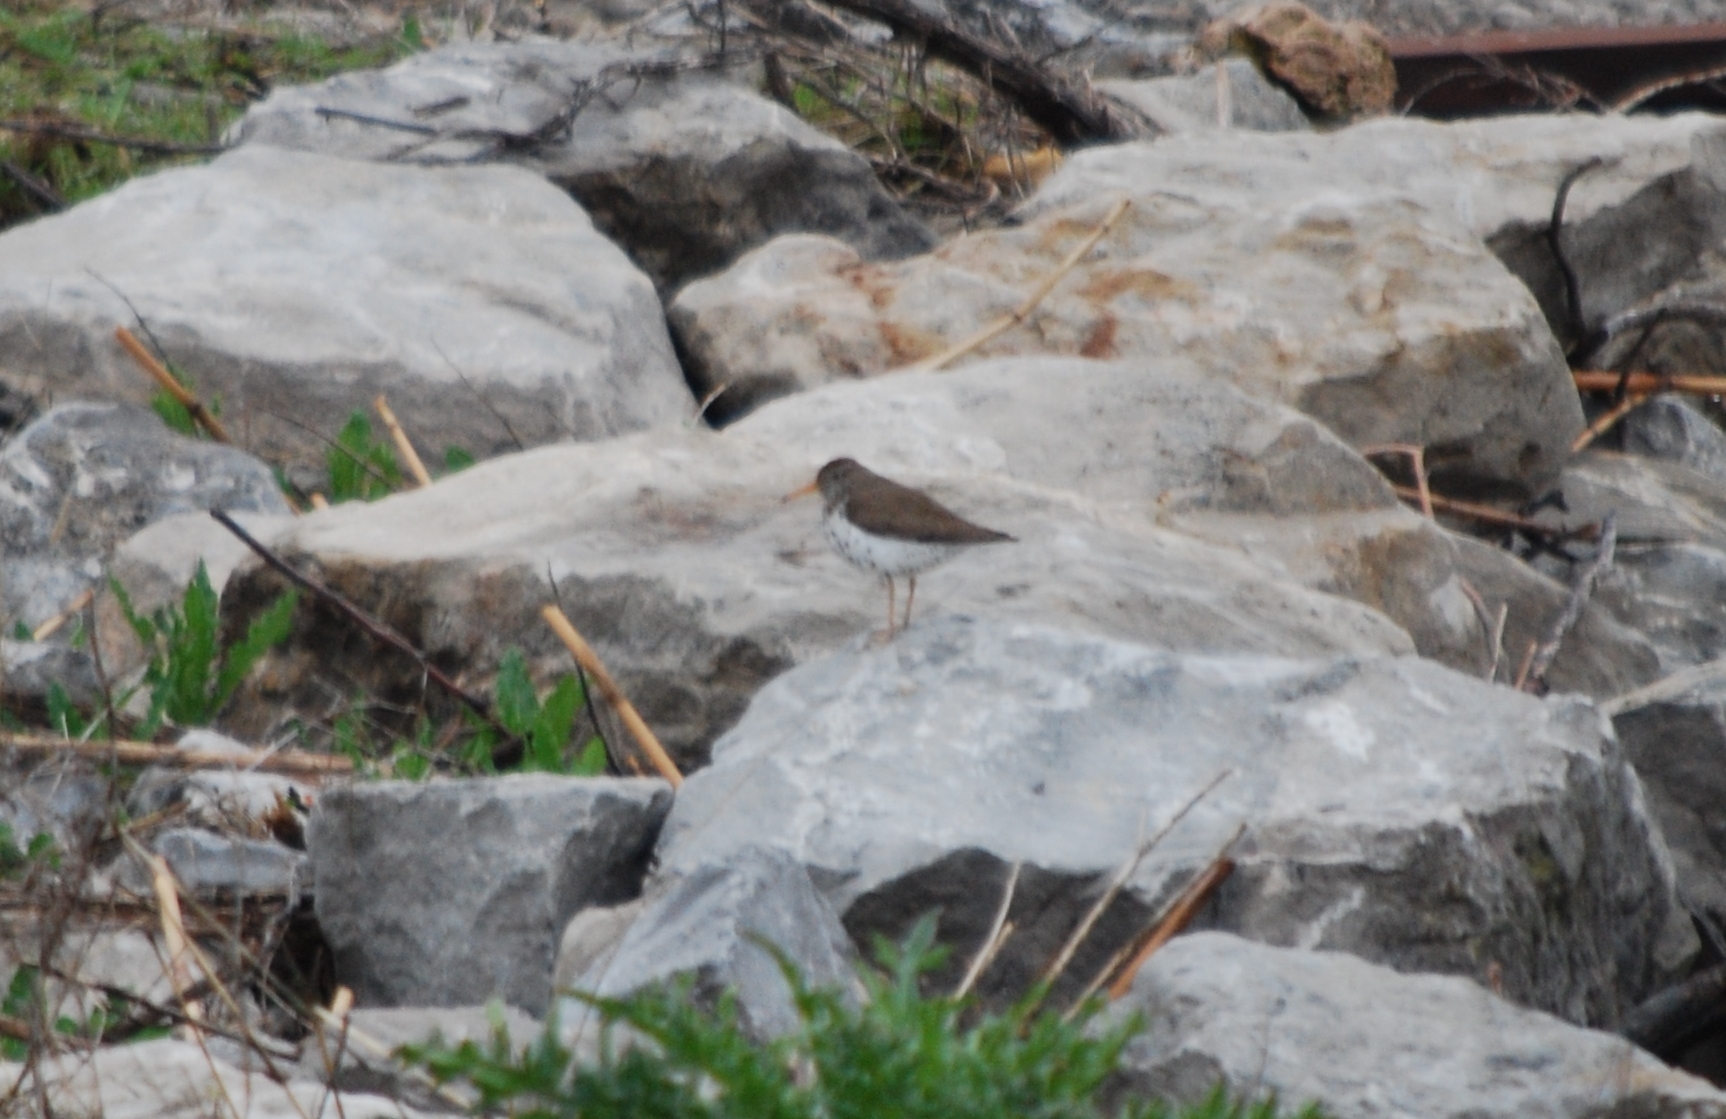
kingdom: Animalia
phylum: Chordata
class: Aves
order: Charadriiformes
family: Scolopacidae
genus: Actitis
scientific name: Actitis macularius
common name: Spotted sandpiper
